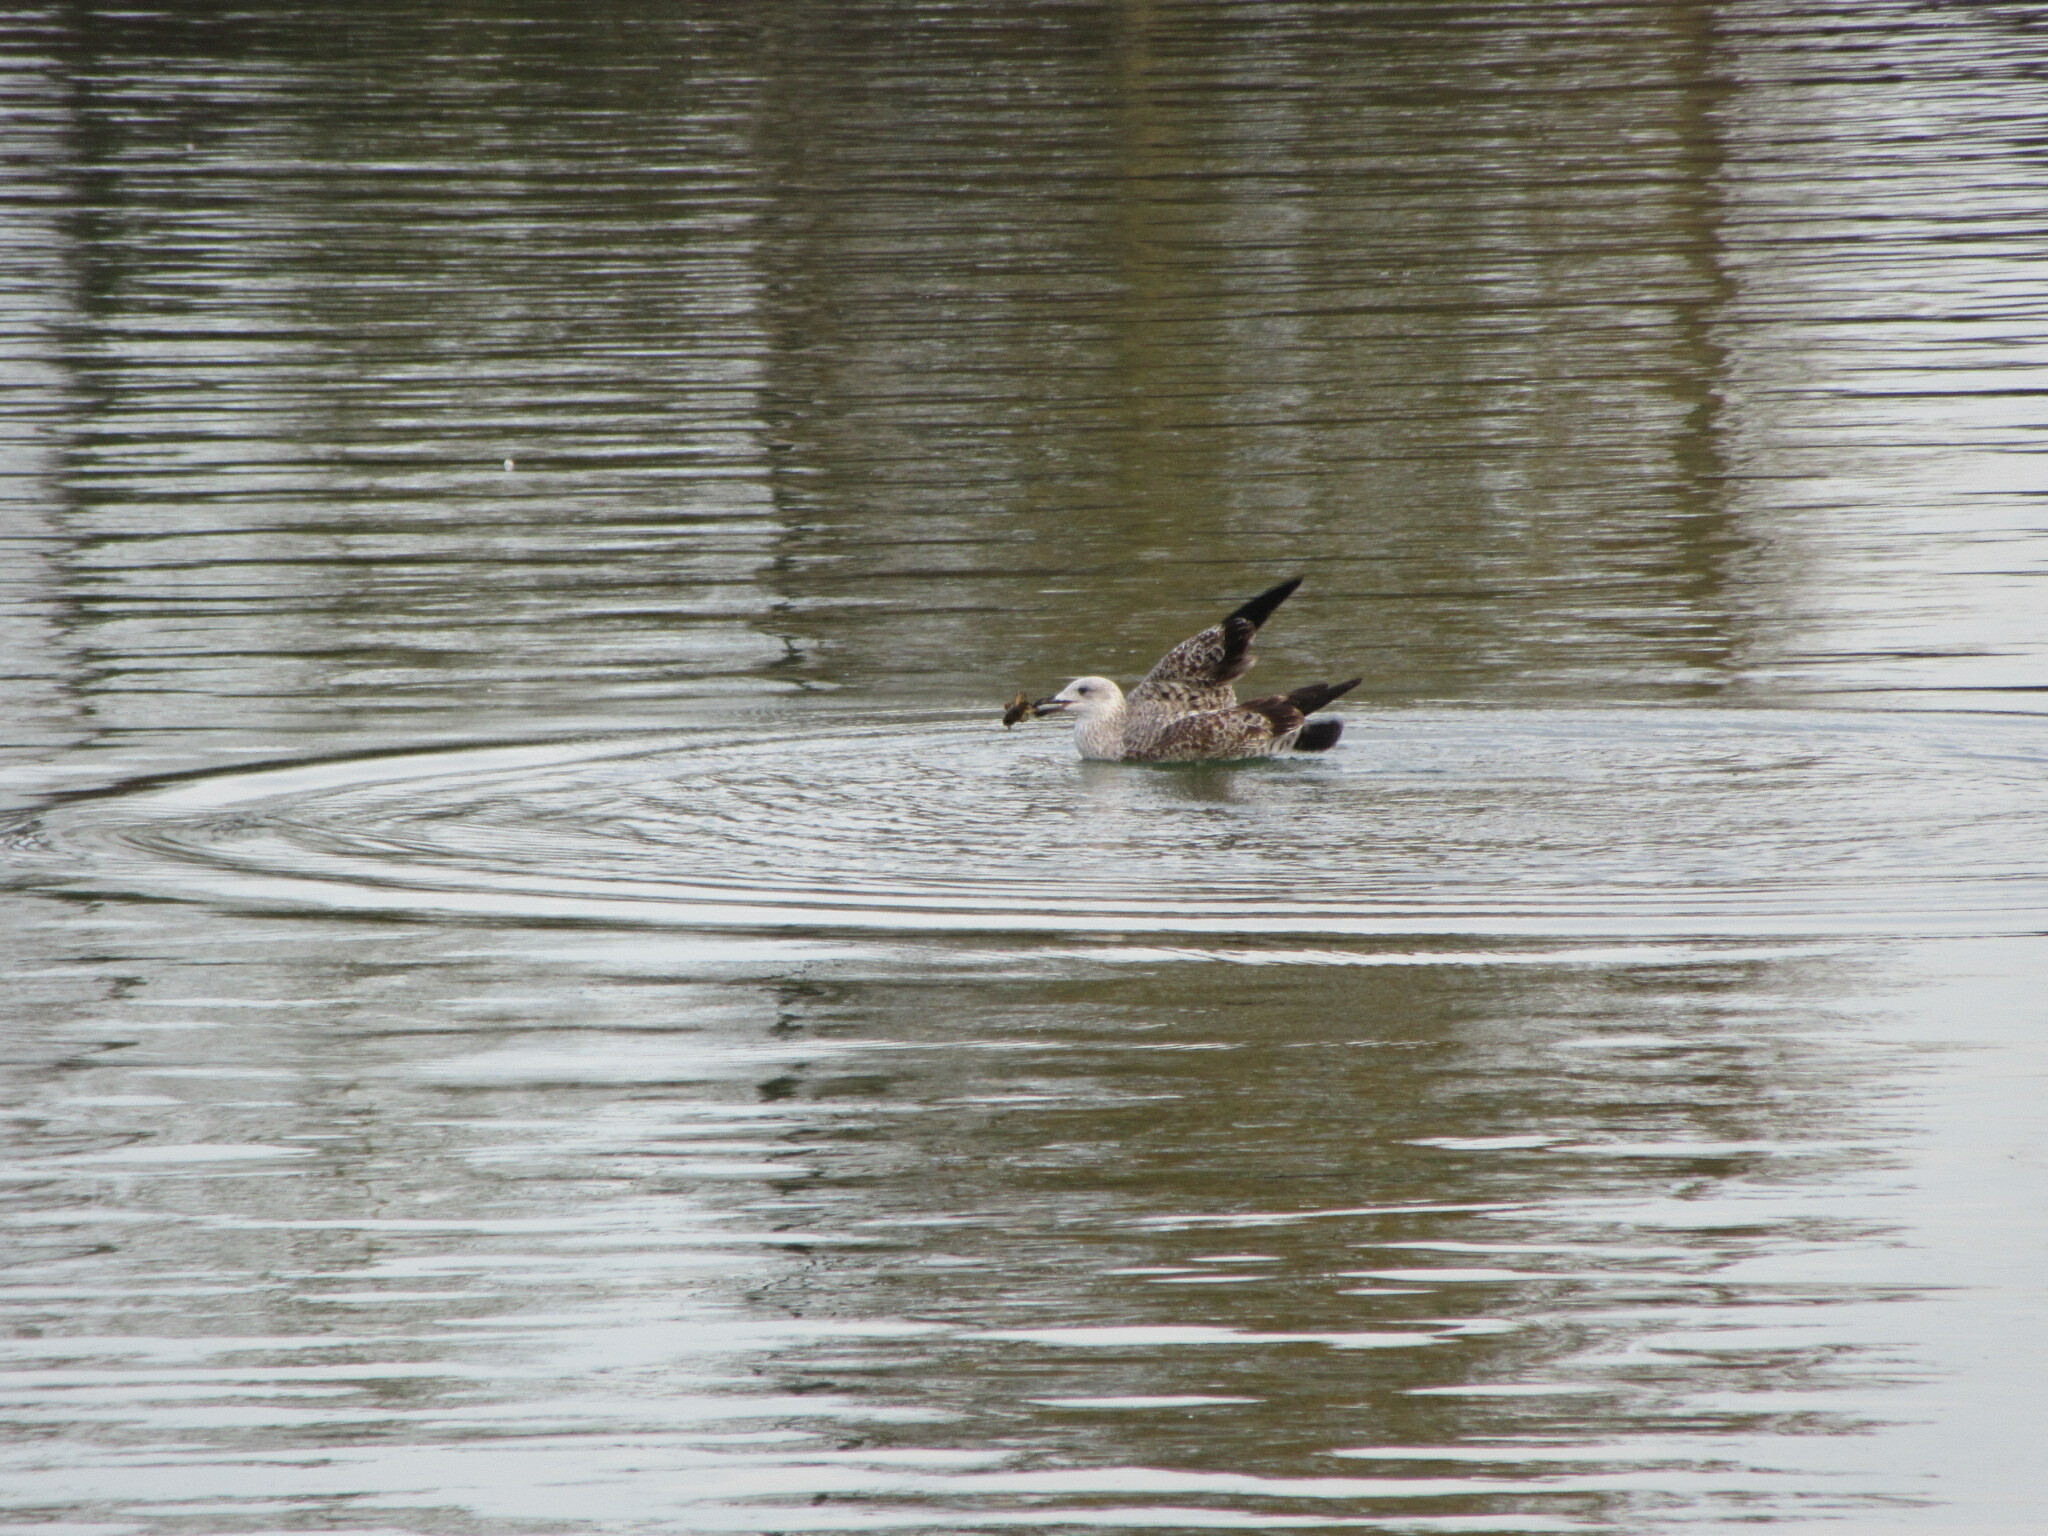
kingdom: Animalia
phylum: Chordata
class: Aves
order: Charadriiformes
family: Laridae
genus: Larus
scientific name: Larus michahellis
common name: Yellow-legged gull
